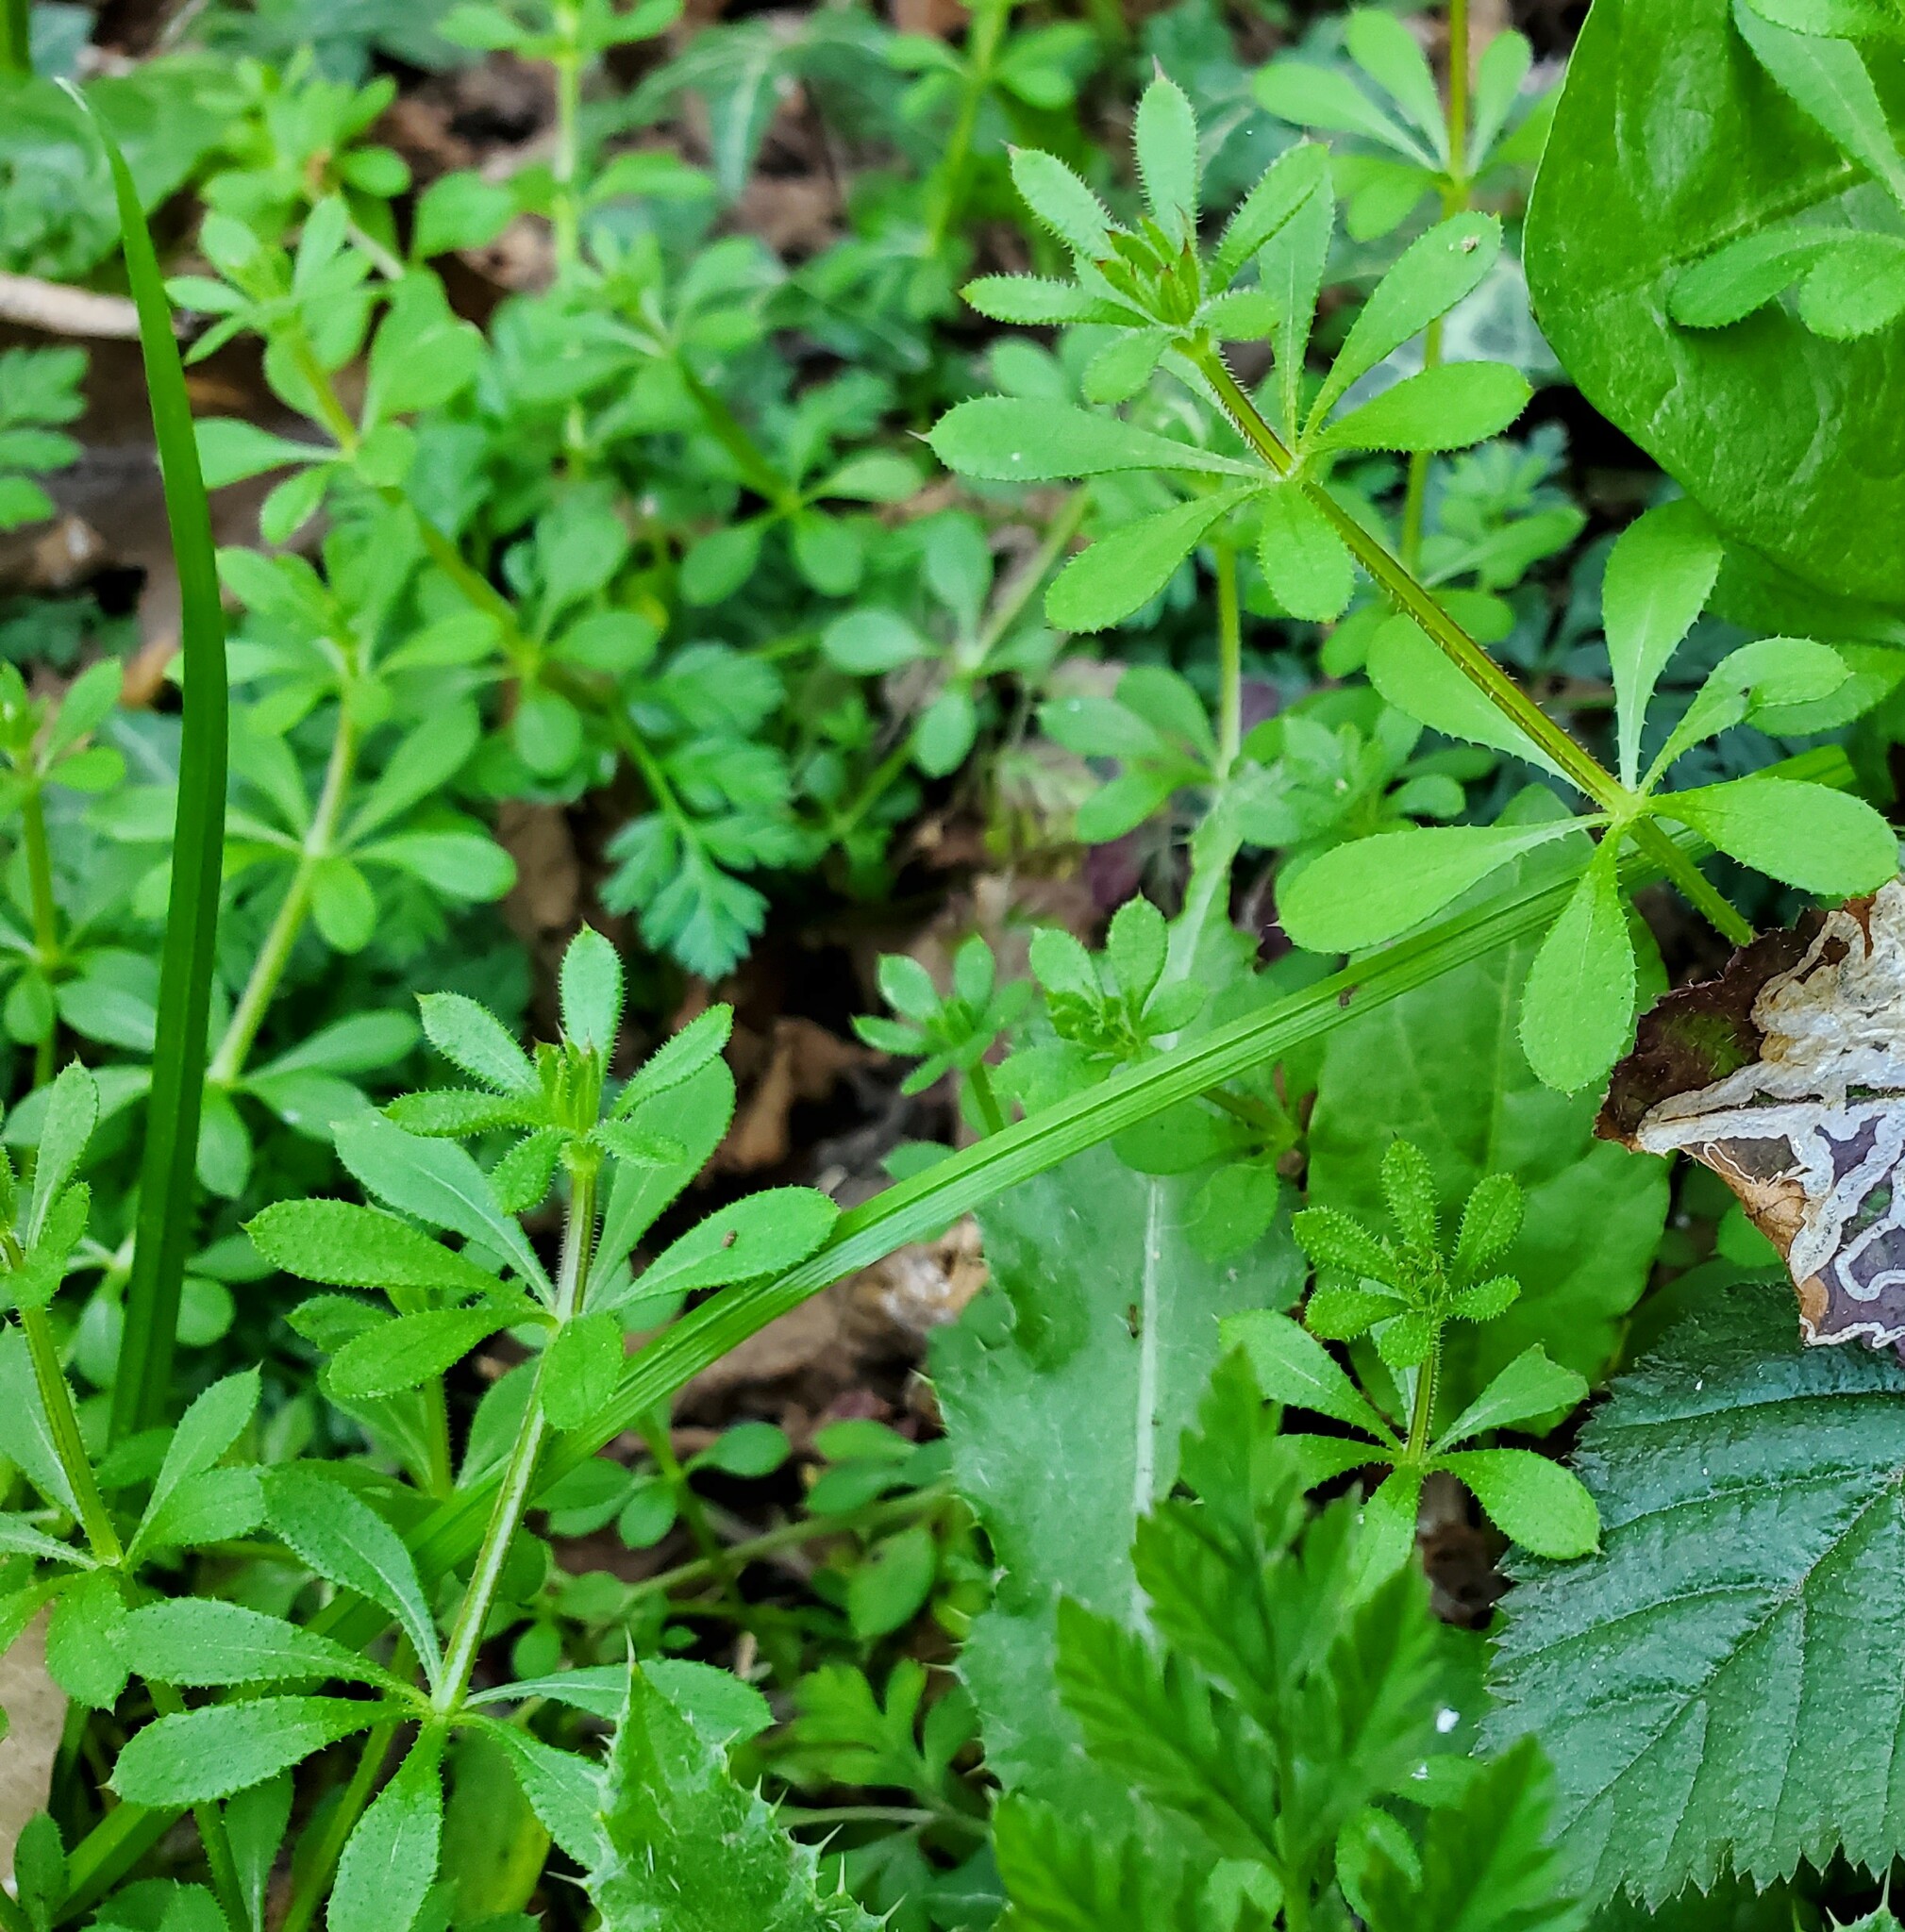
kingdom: Plantae
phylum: Tracheophyta
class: Magnoliopsida
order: Gentianales
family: Rubiaceae
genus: Galium
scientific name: Galium aparine
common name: Cleavers
